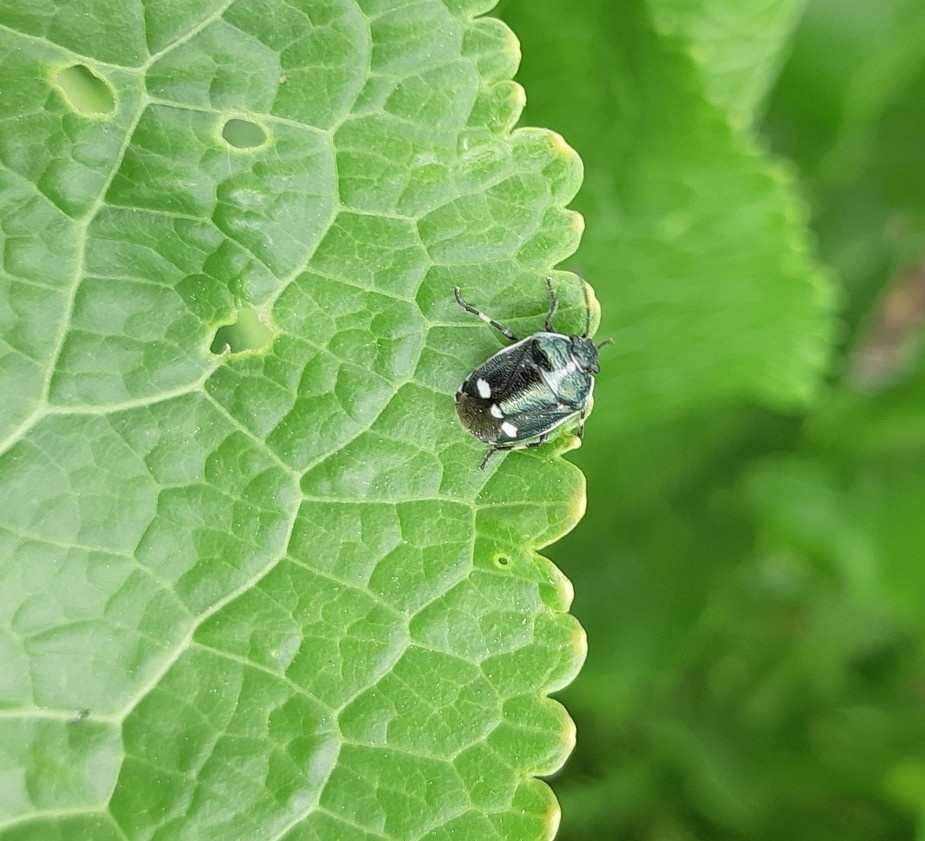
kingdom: Animalia
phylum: Arthropoda
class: Insecta
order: Hemiptera
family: Pentatomidae
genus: Eurydema
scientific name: Eurydema oleracea
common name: Cabbage bug
